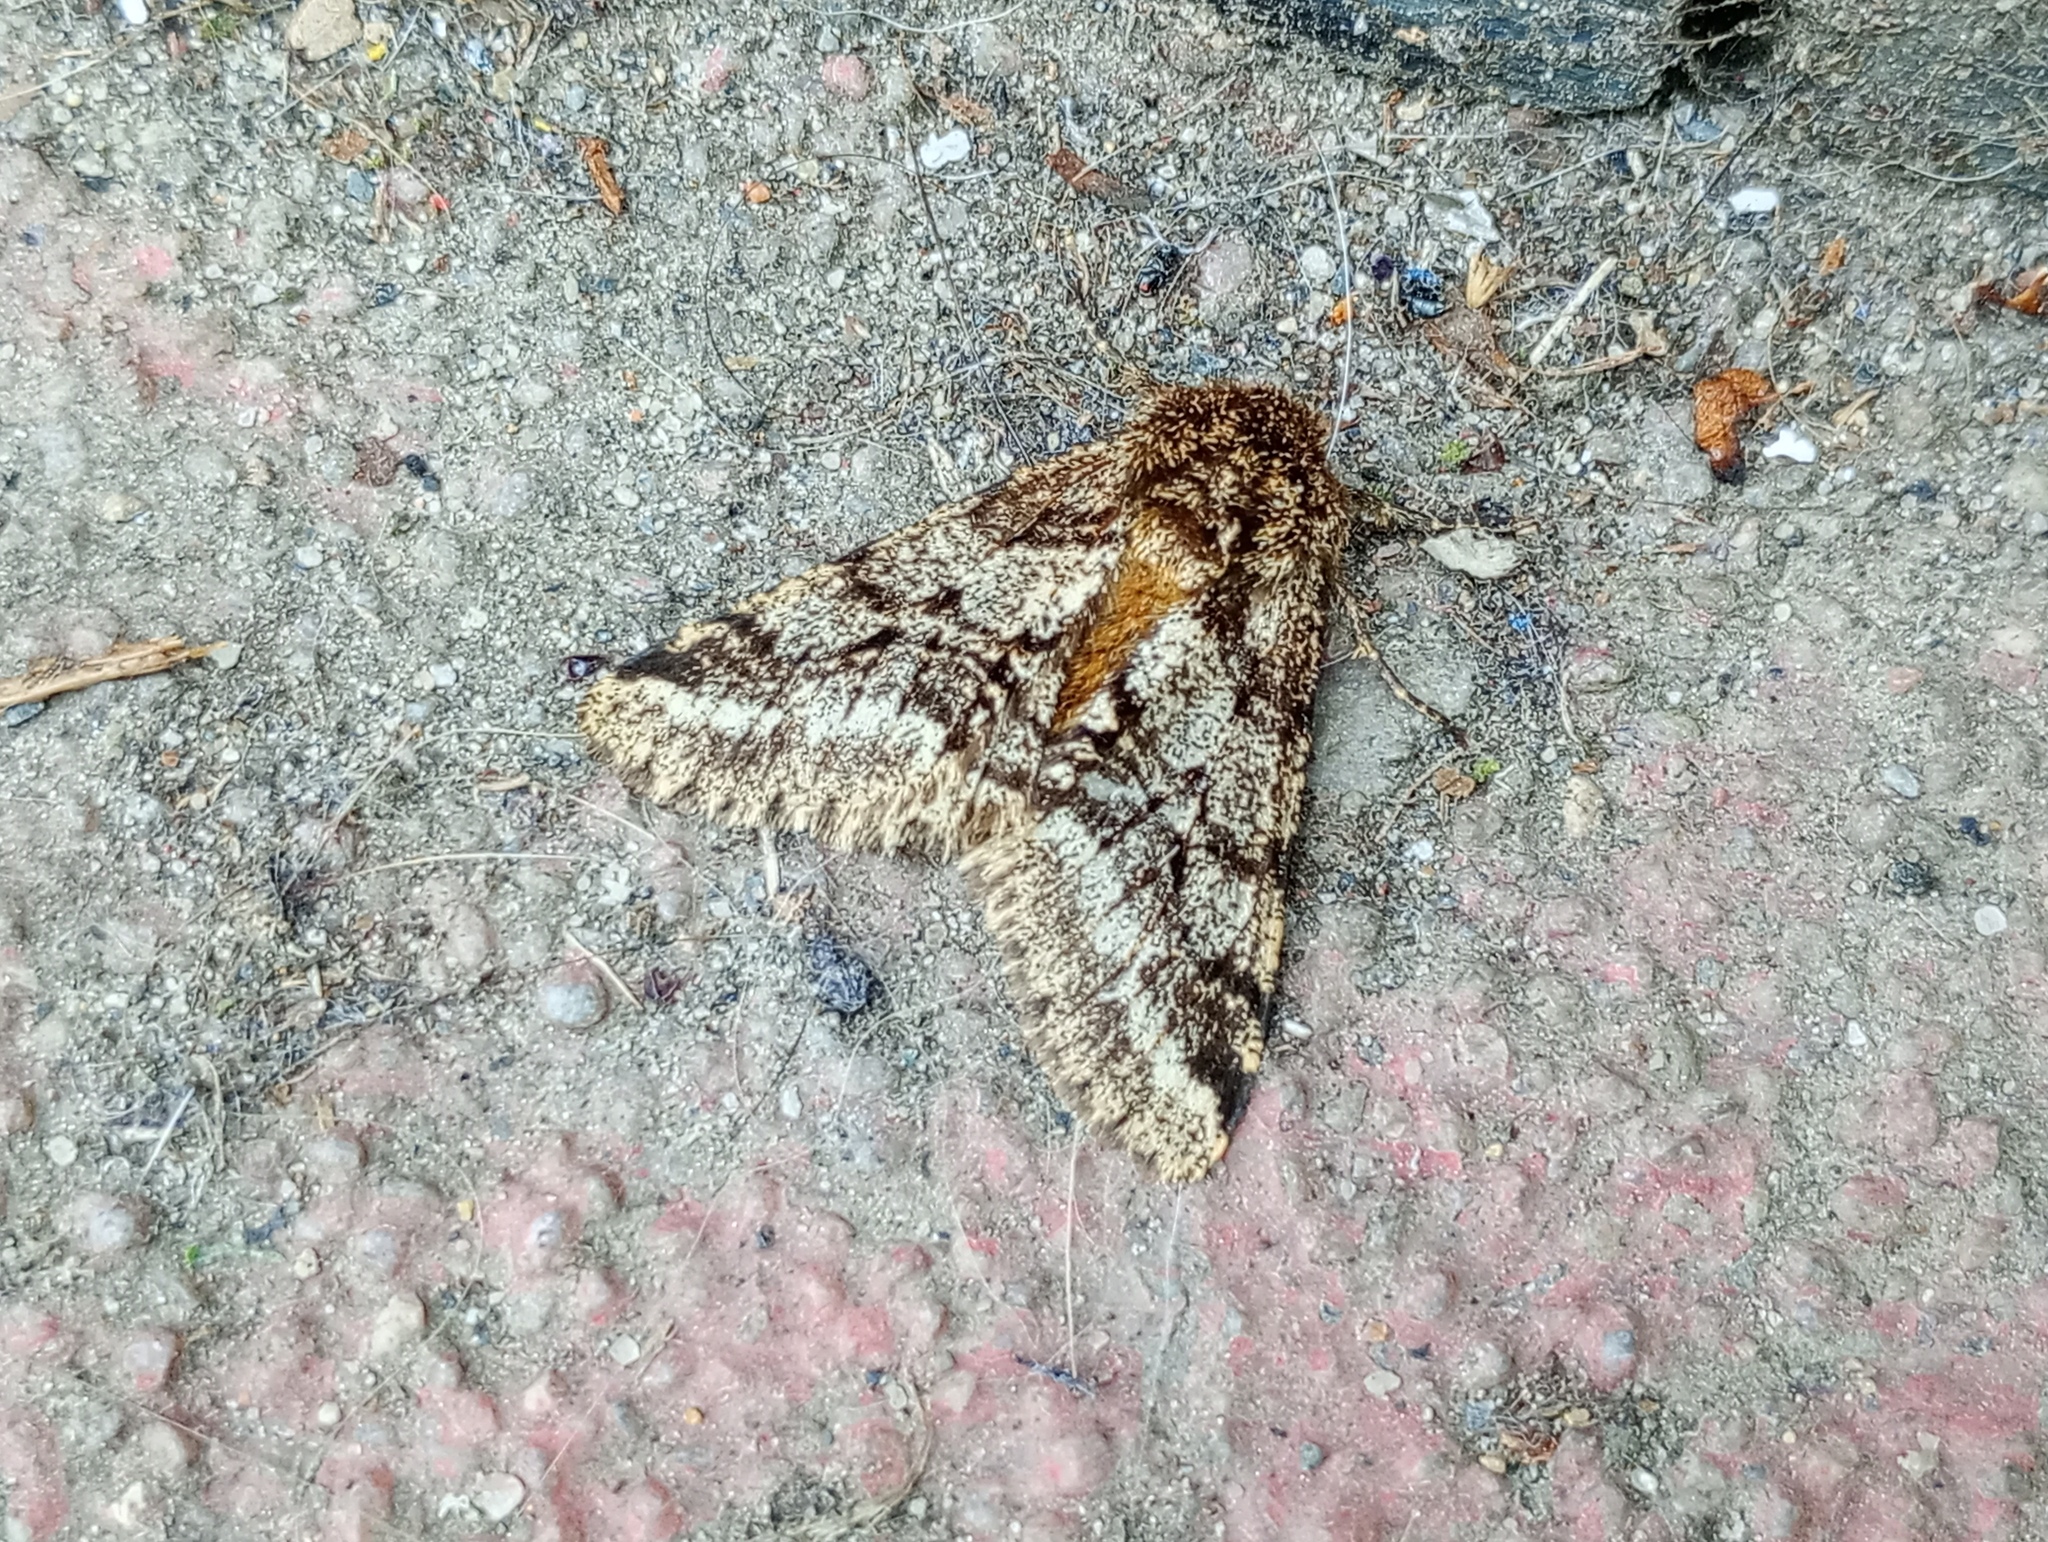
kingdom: Animalia
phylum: Arthropoda
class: Insecta
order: Lepidoptera
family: Geometridae
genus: Lycia
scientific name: Lycia hirtaria
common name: Brindled beauty
